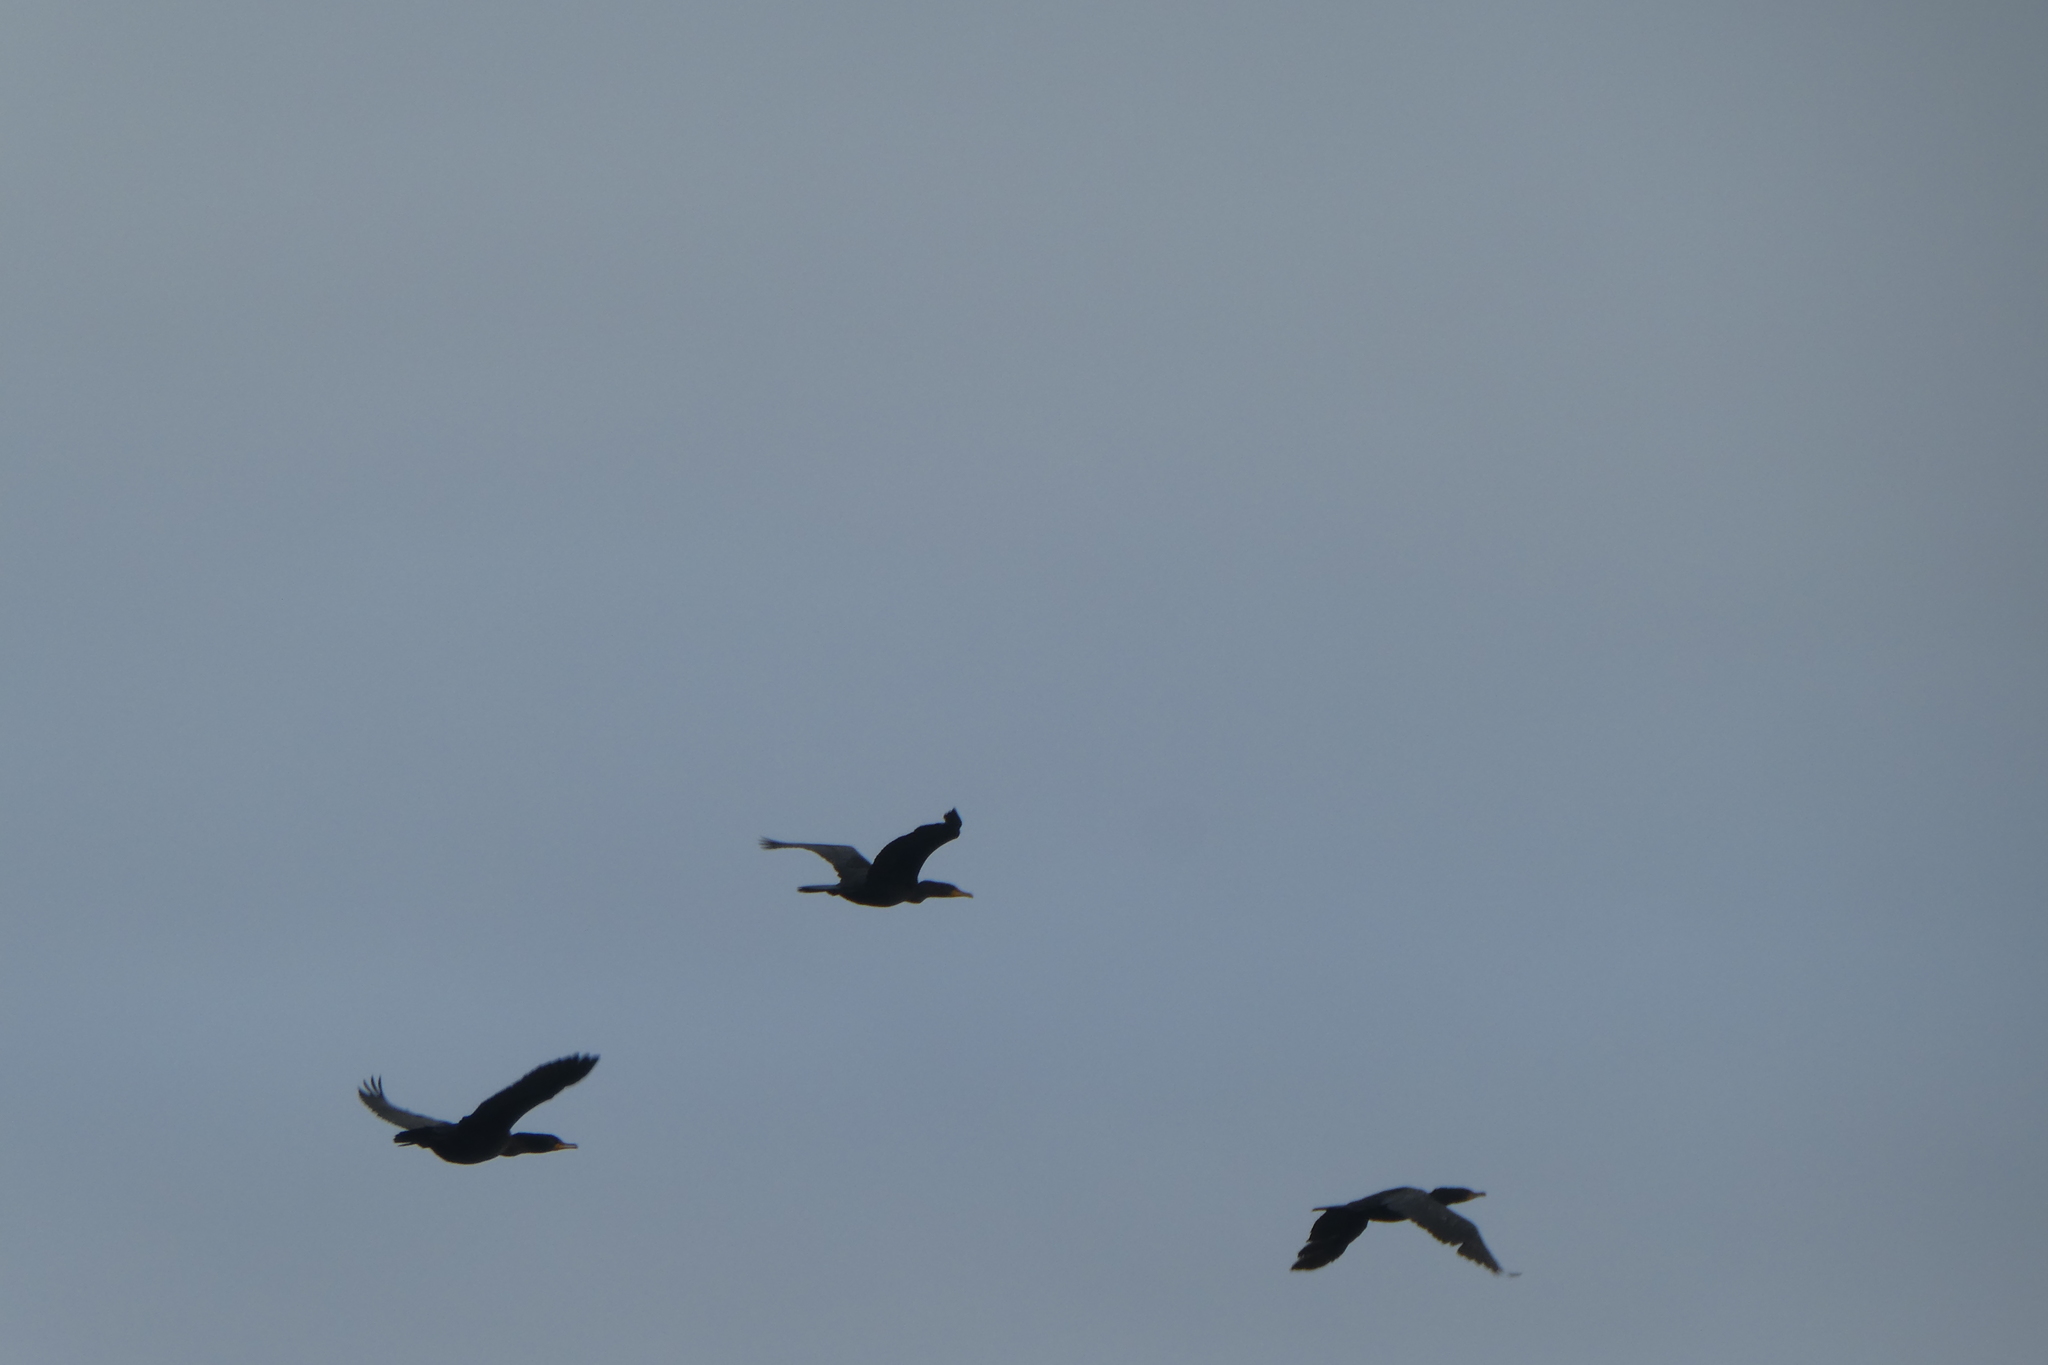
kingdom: Animalia
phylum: Chordata
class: Aves
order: Suliformes
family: Phalacrocoracidae
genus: Phalacrocorax
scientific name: Phalacrocorax auritus
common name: Double-crested cormorant
